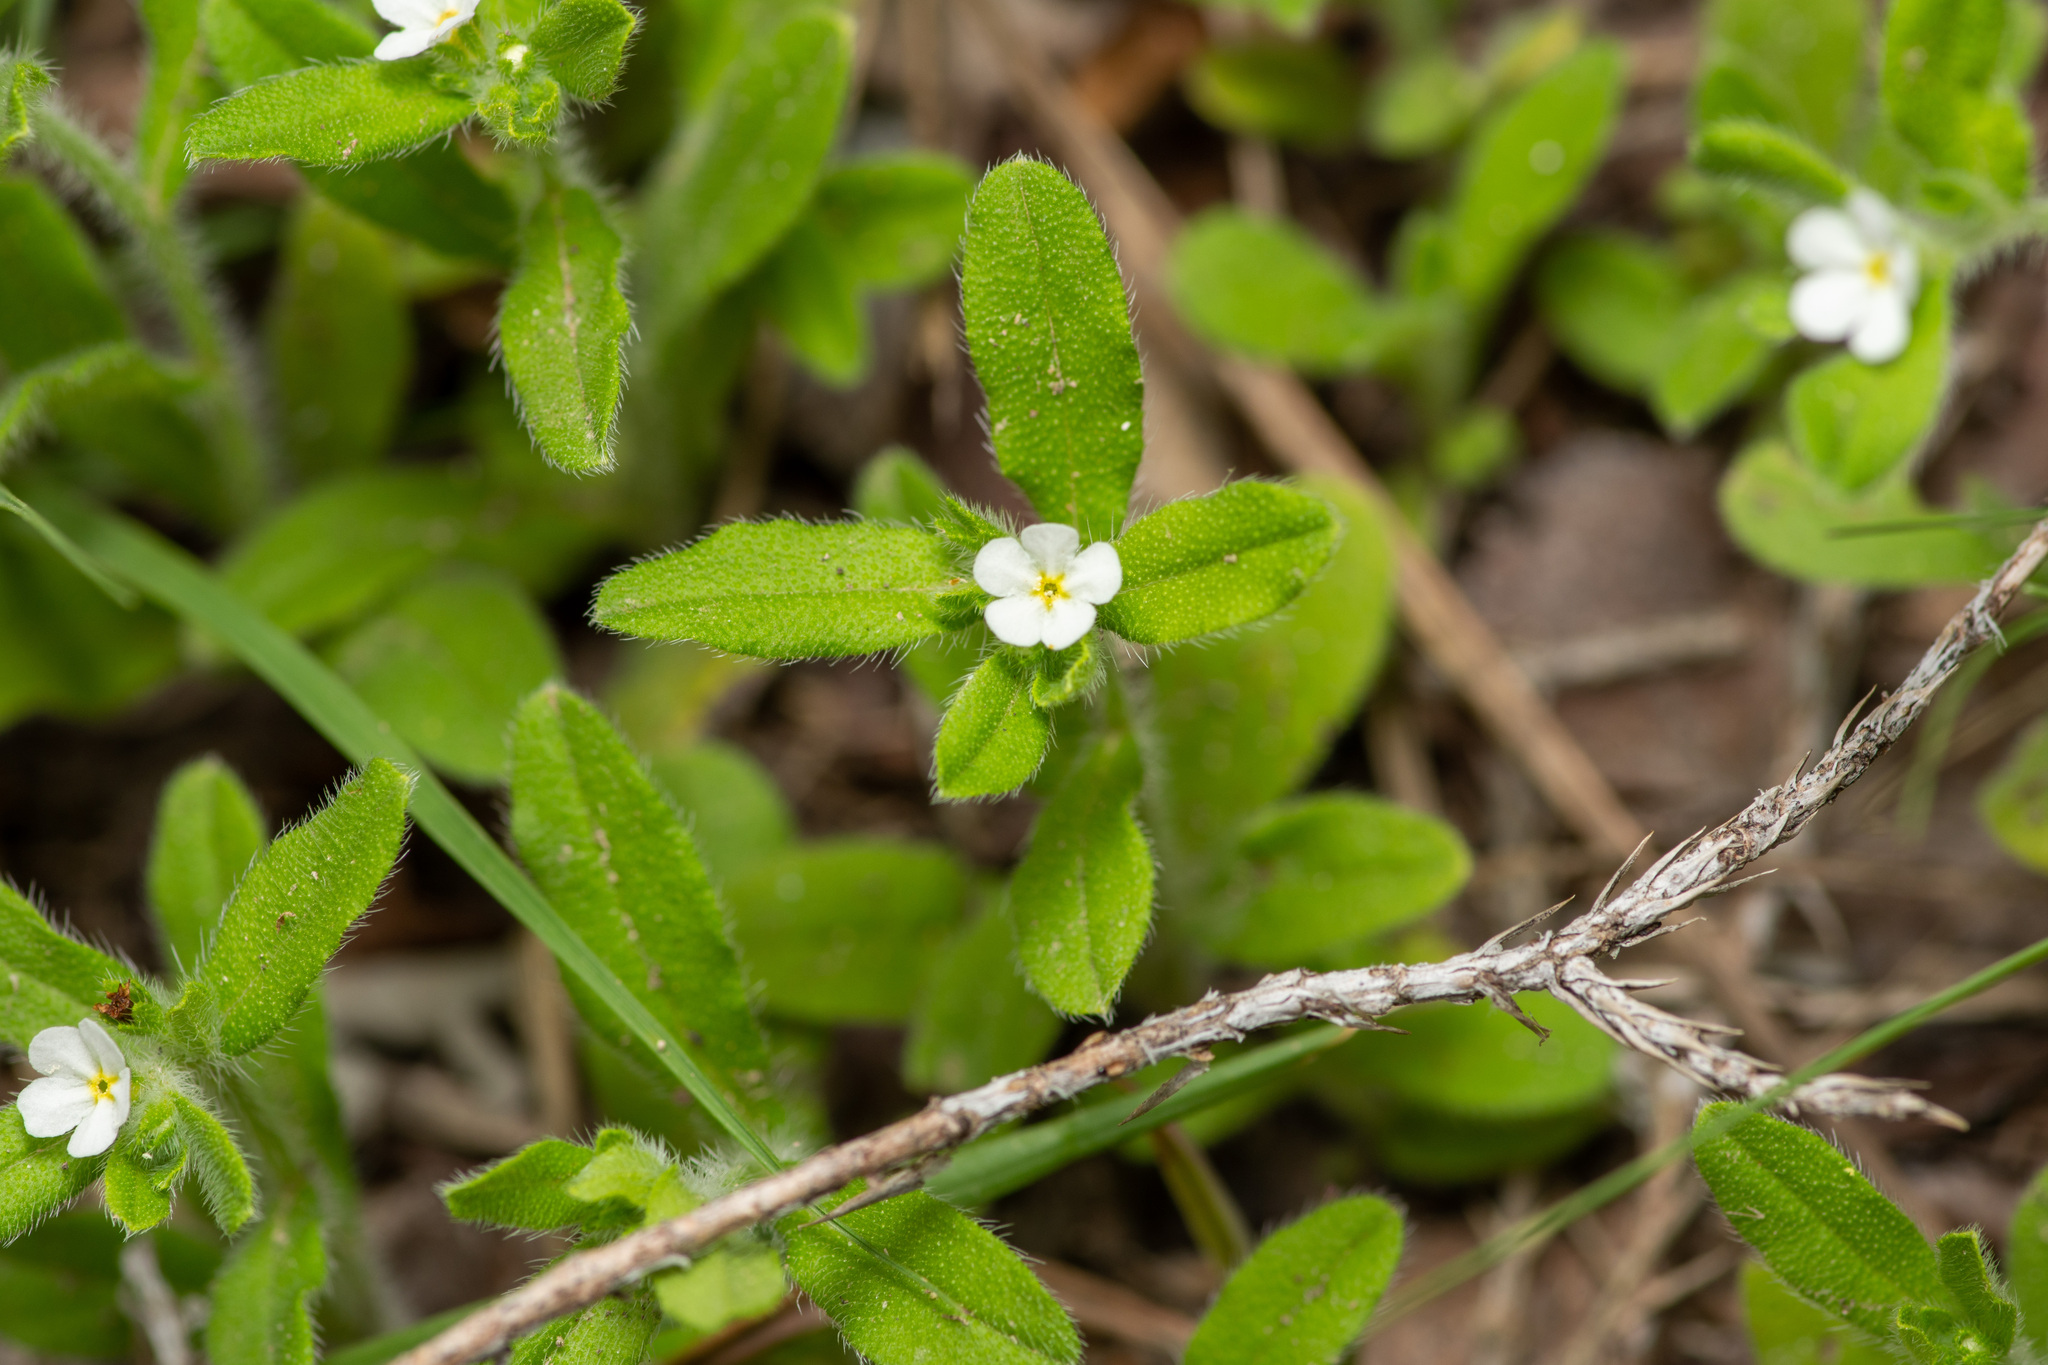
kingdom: Plantae
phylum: Tracheophyta
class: Magnoliopsida
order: Boraginales
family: Boraginaceae
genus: Lithospermum
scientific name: Lithospermum matamorense
